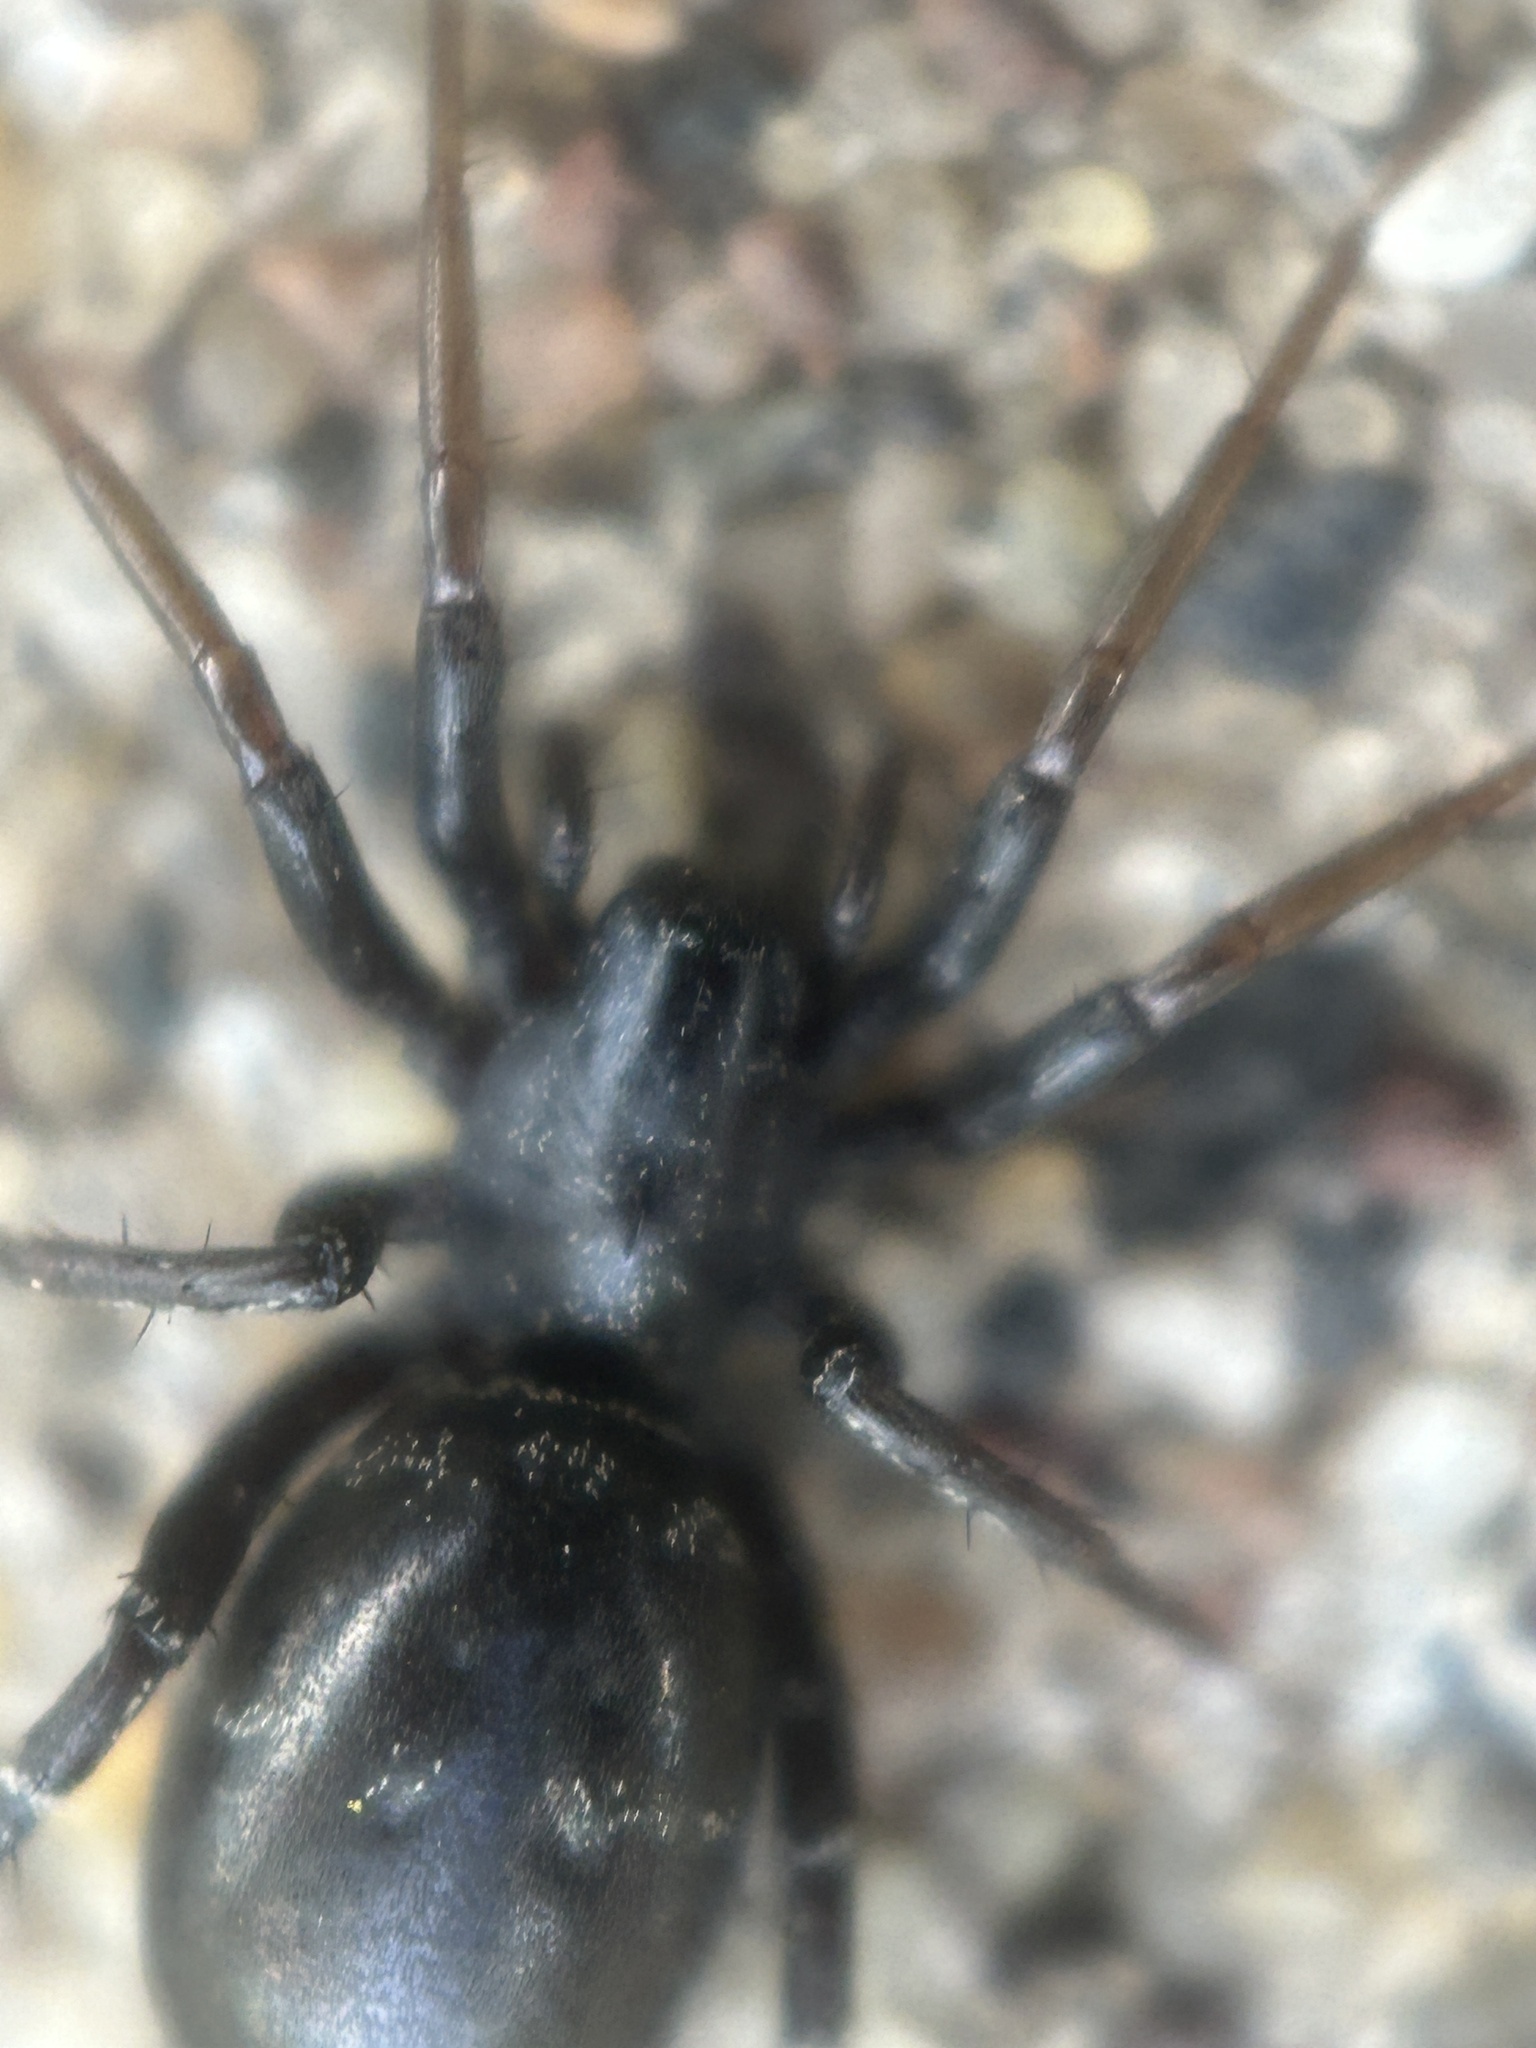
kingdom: Animalia
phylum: Arthropoda
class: Arachnida
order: Araneae
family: Corinnidae
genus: Castianeira
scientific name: Castianeira longipalpa
